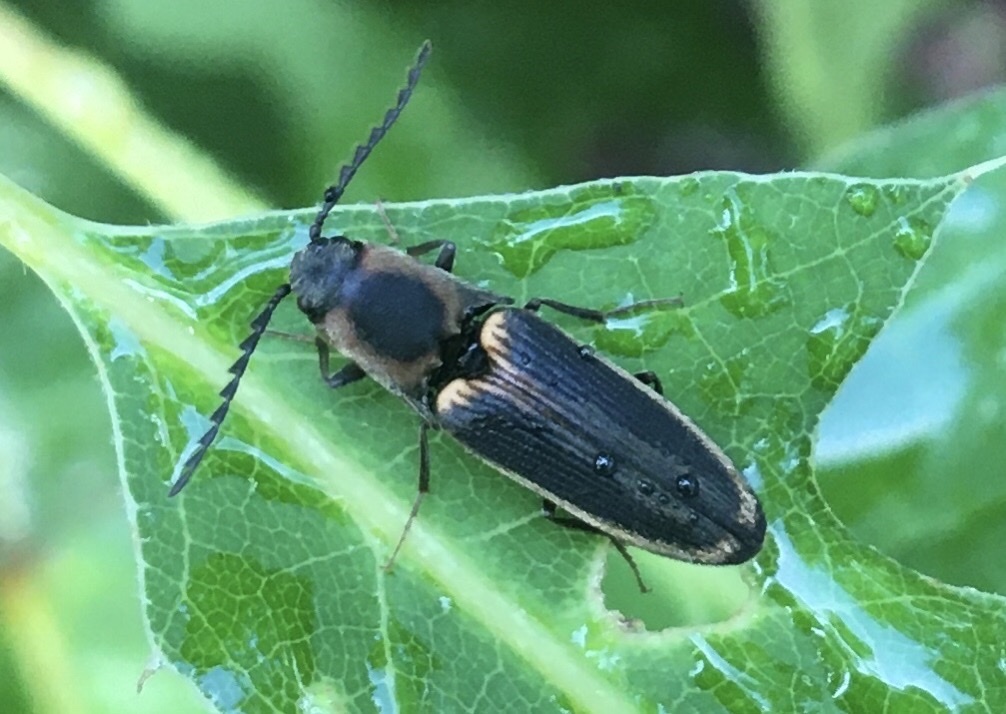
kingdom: Animalia
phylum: Arthropoda
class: Insecta
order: Coleoptera
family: Elateridae
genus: Megapenthes
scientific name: Megapenthes
